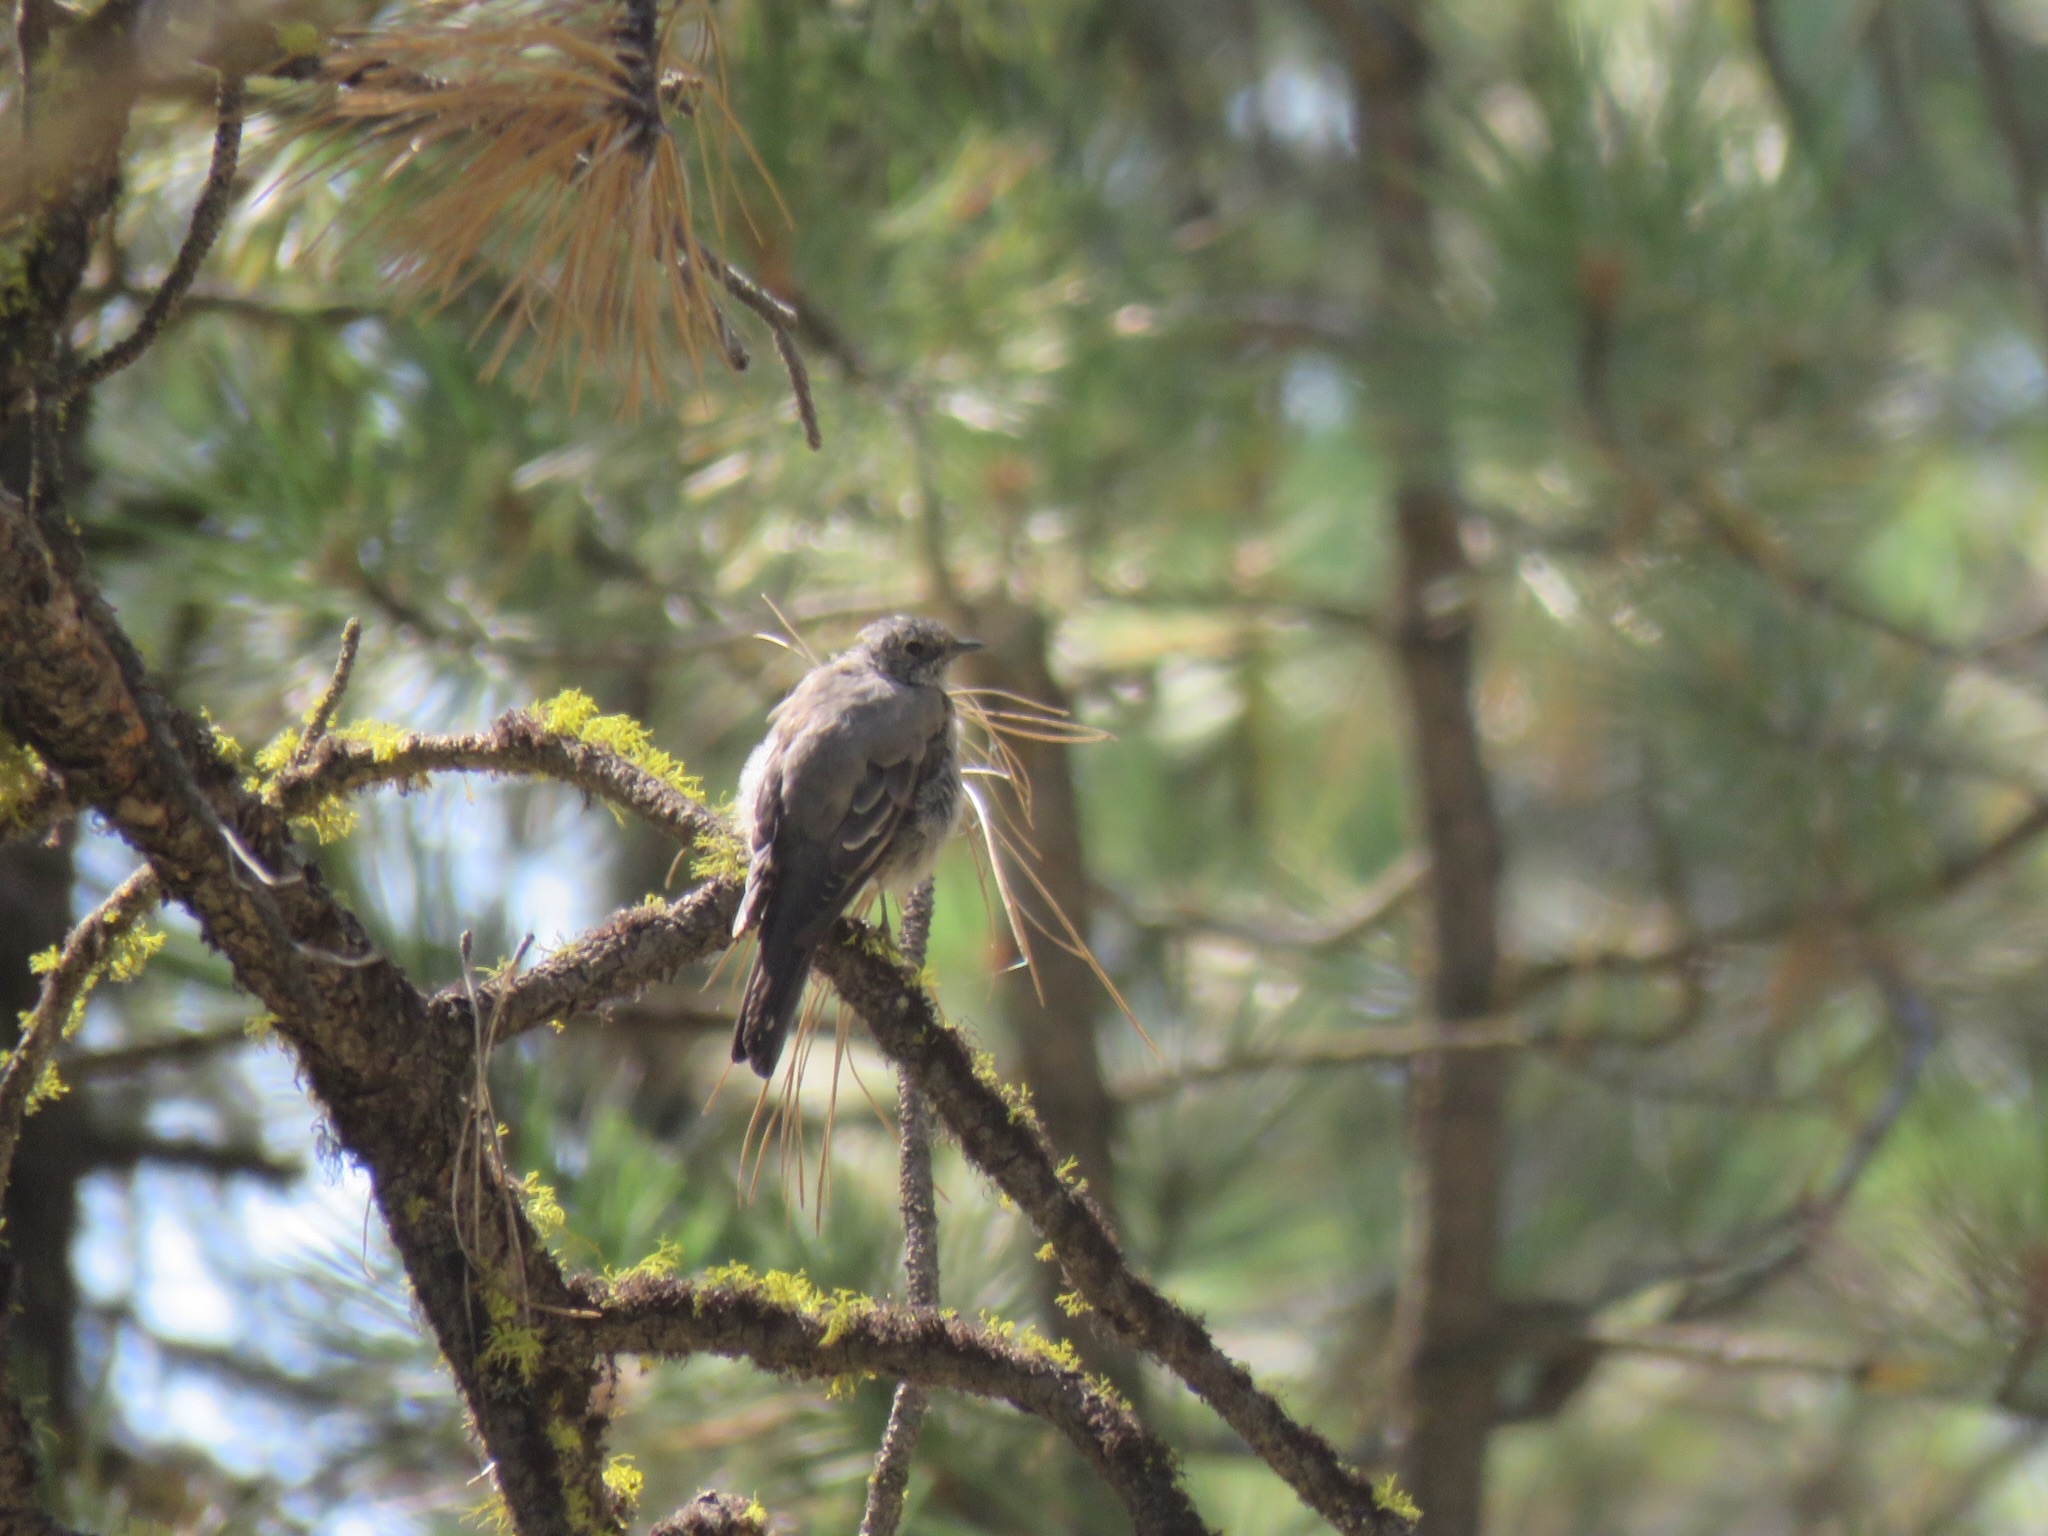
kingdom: Animalia
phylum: Chordata
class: Aves
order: Passeriformes
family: Turdidae
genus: Myadestes
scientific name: Myadestes townsendi
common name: Townsend's solitaire
